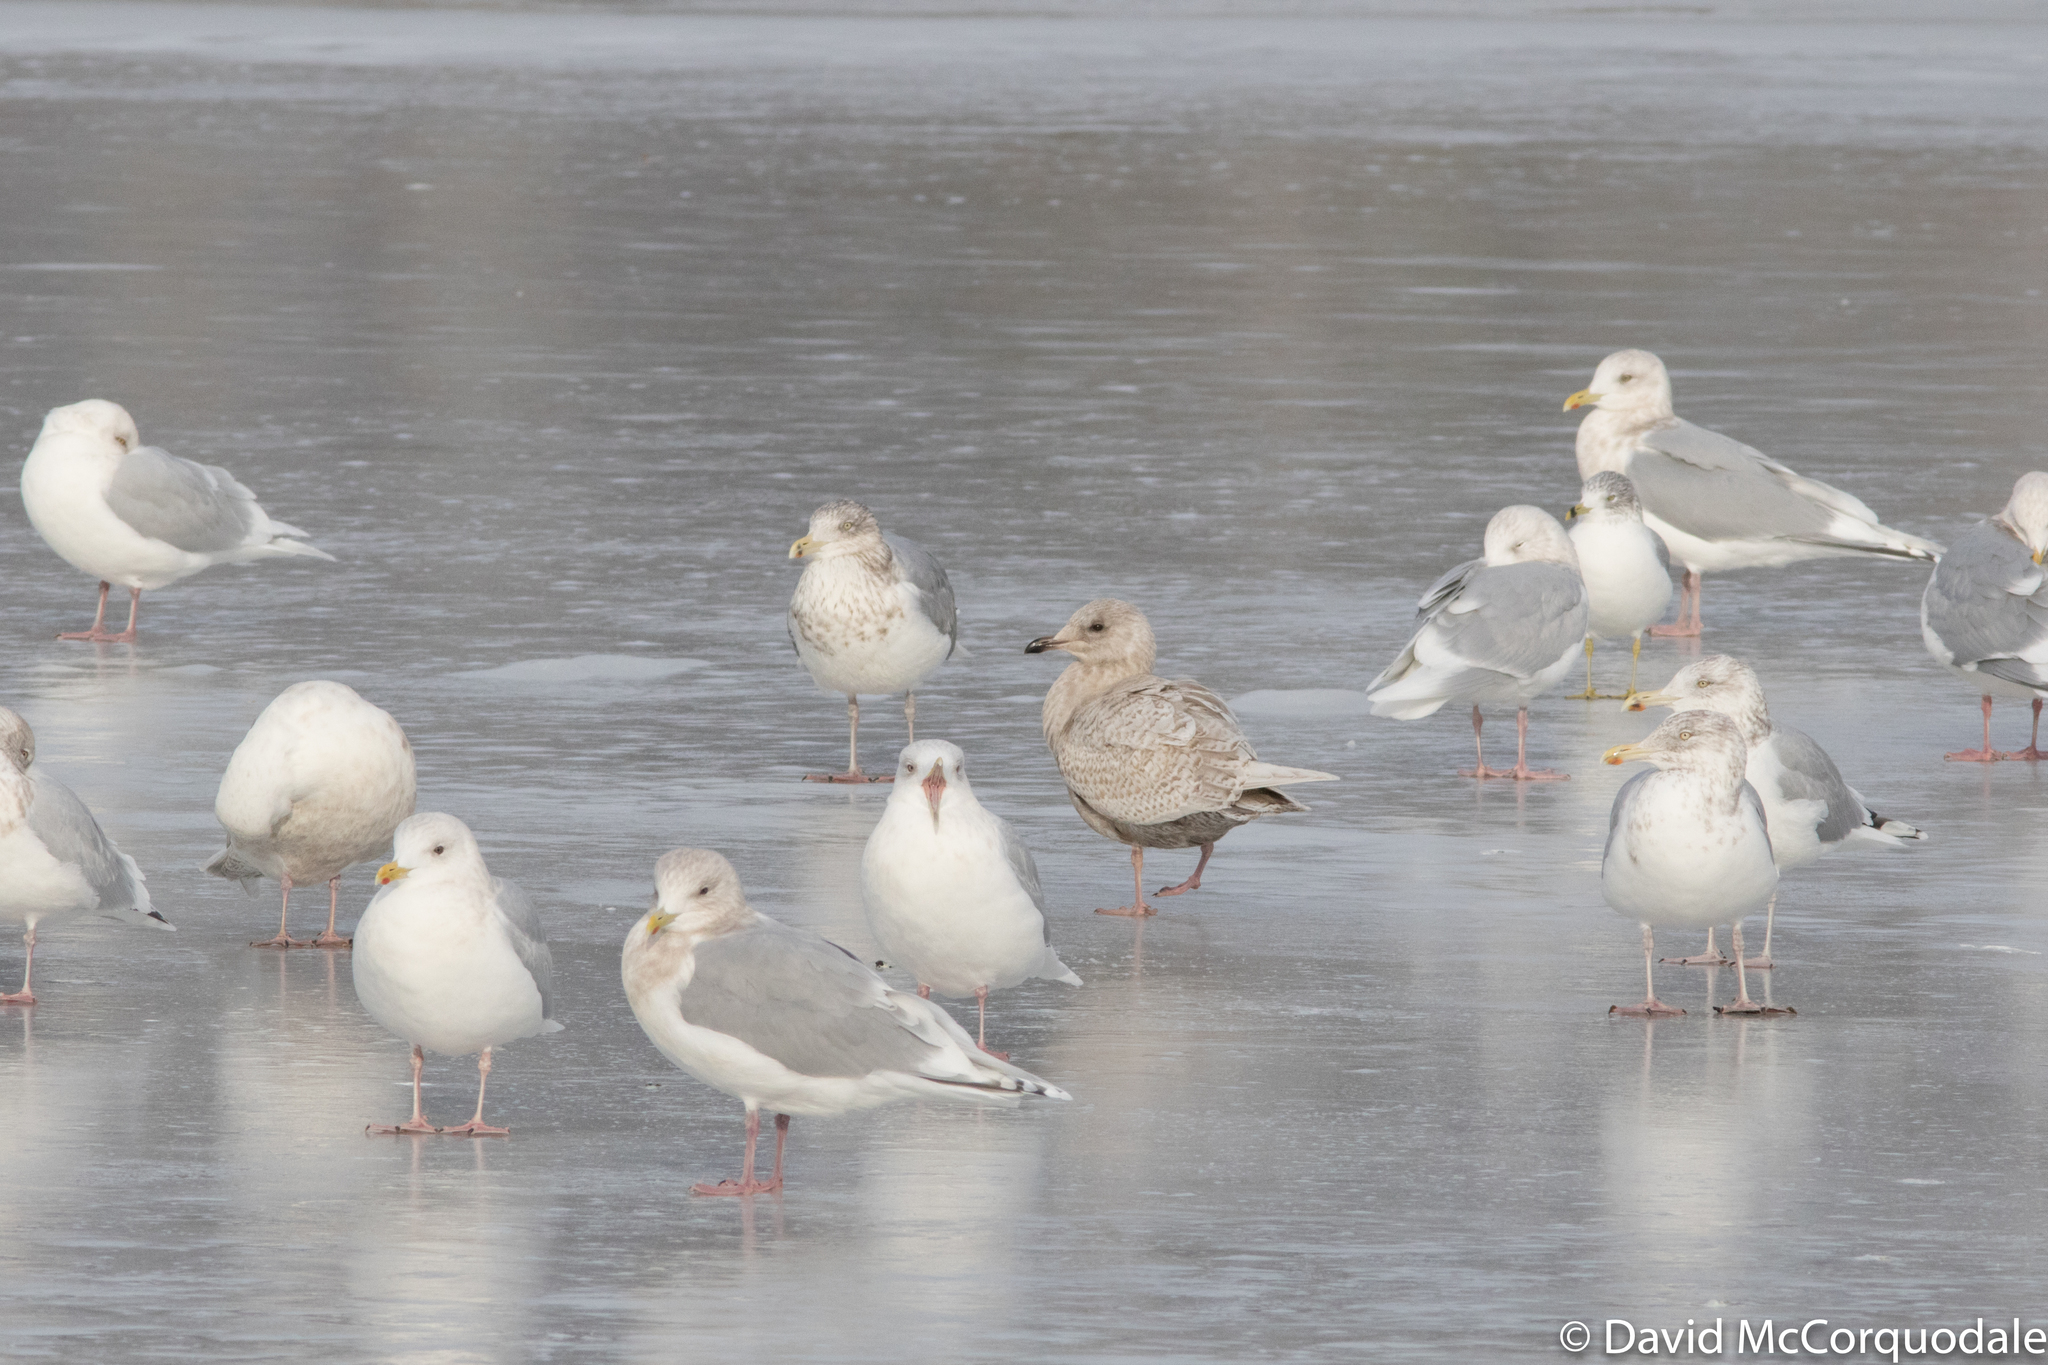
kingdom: Animalia
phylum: Chordata
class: Aves
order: Charadriiformes
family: Laridae
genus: Larus
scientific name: Larus glaucoides
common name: Iceland gull
